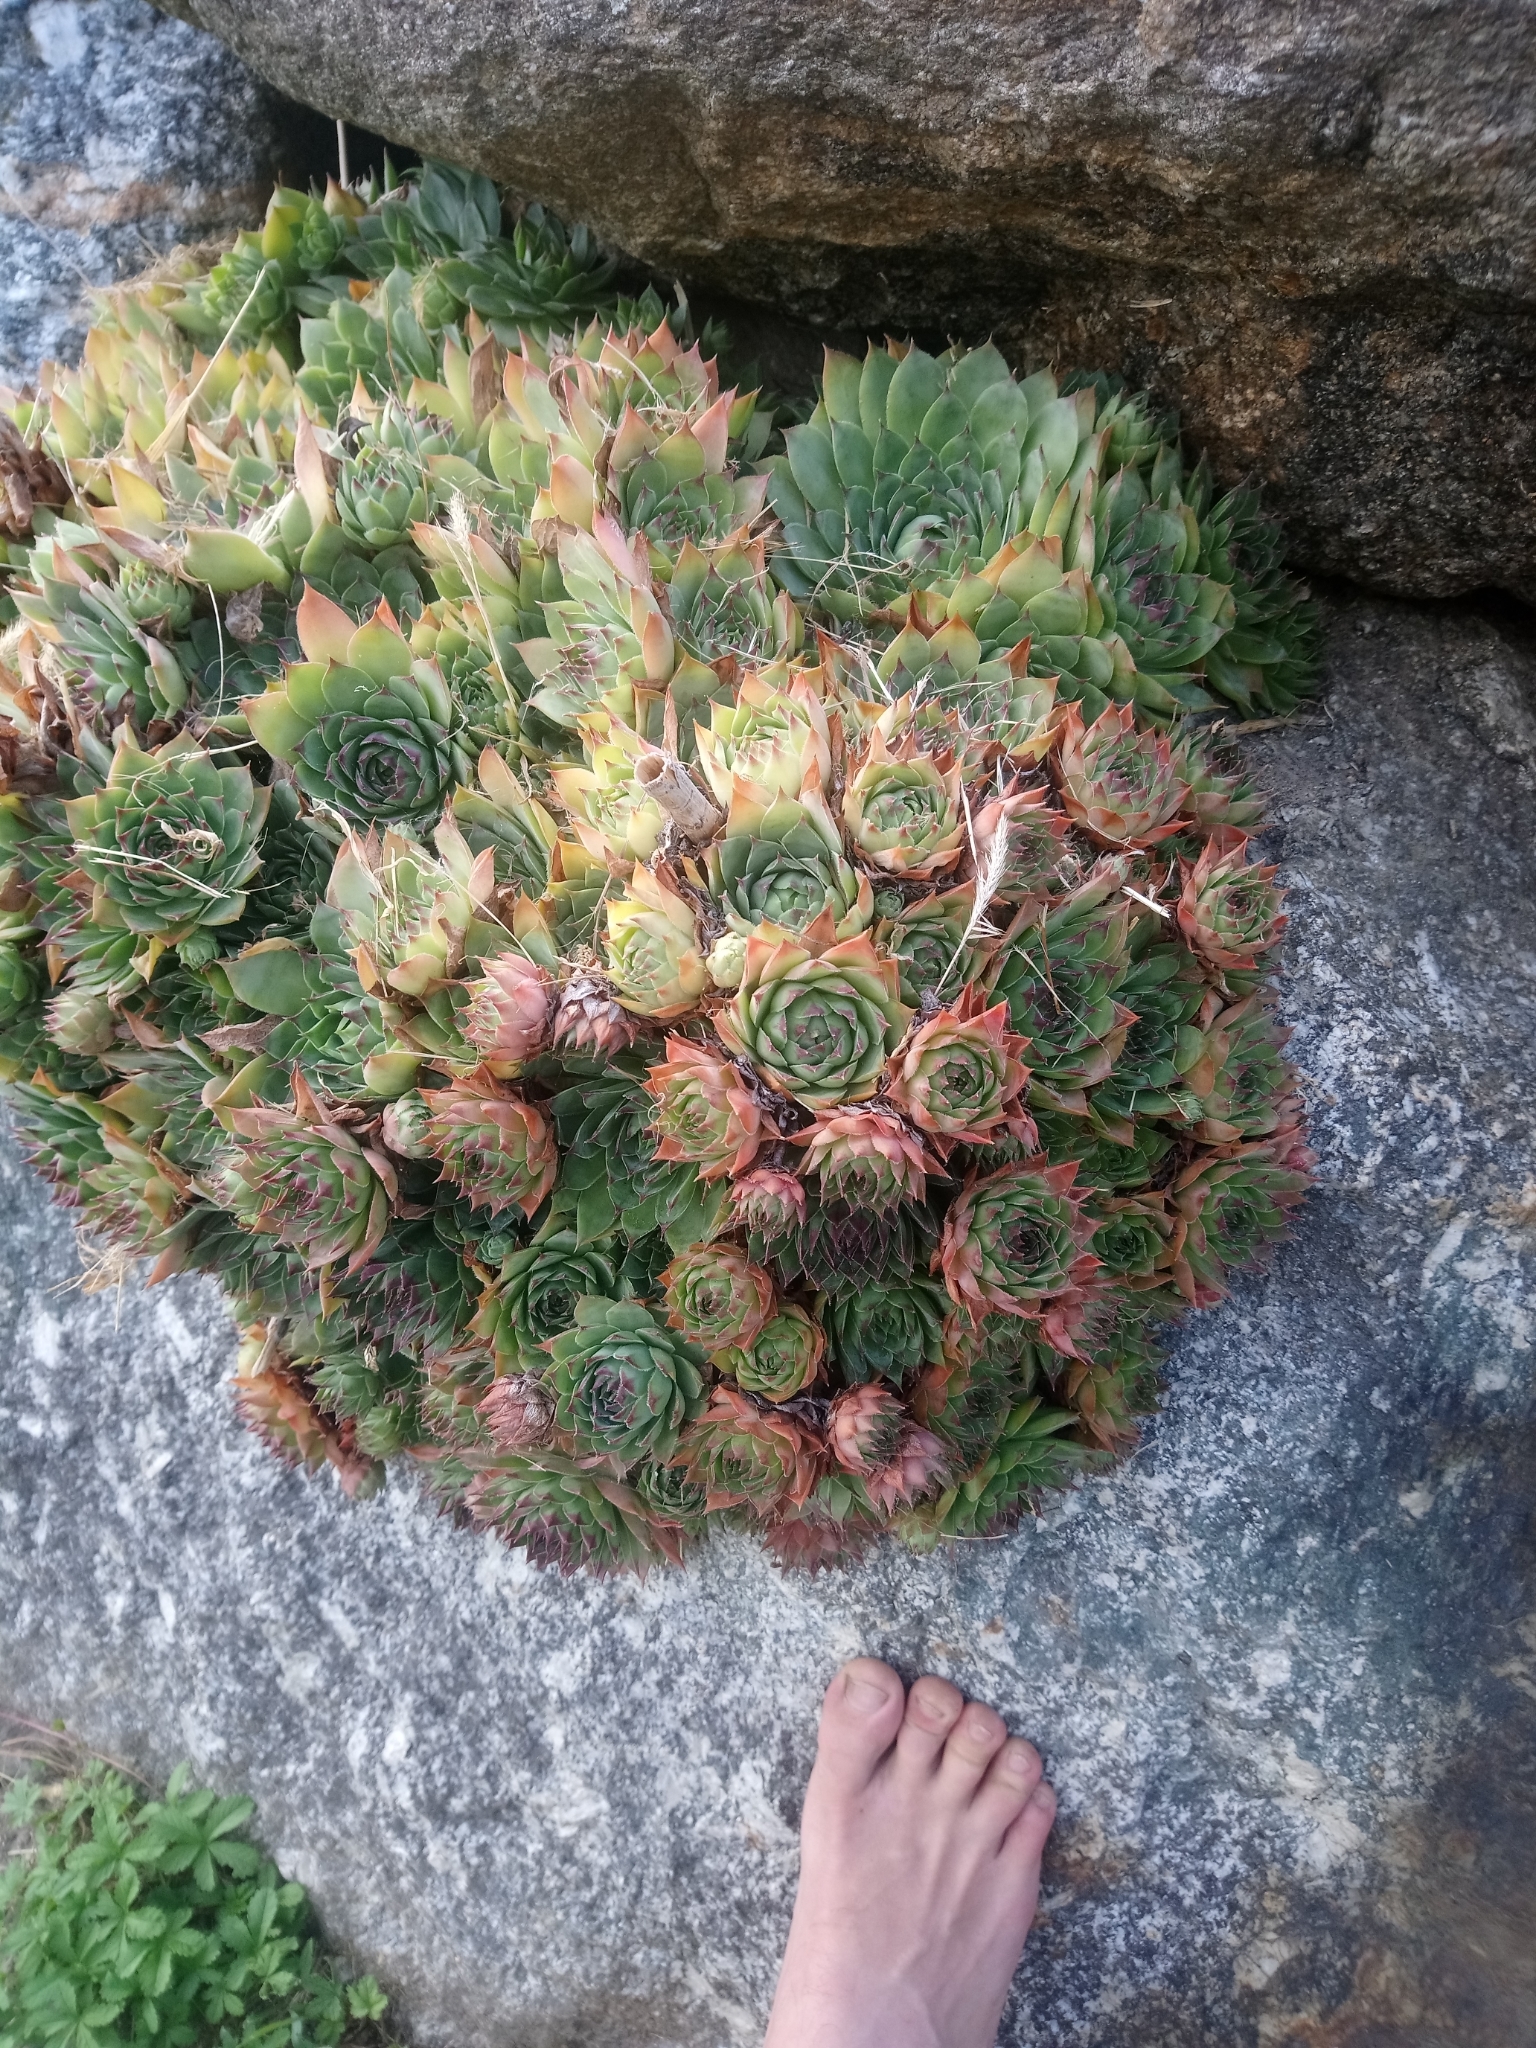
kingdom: Plantae
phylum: Tracheophyta
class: Magnoliopsida
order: Saxifragales
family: Crassulaceae
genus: Sempervivum
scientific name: Sempervivum tectorum
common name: House-leek
